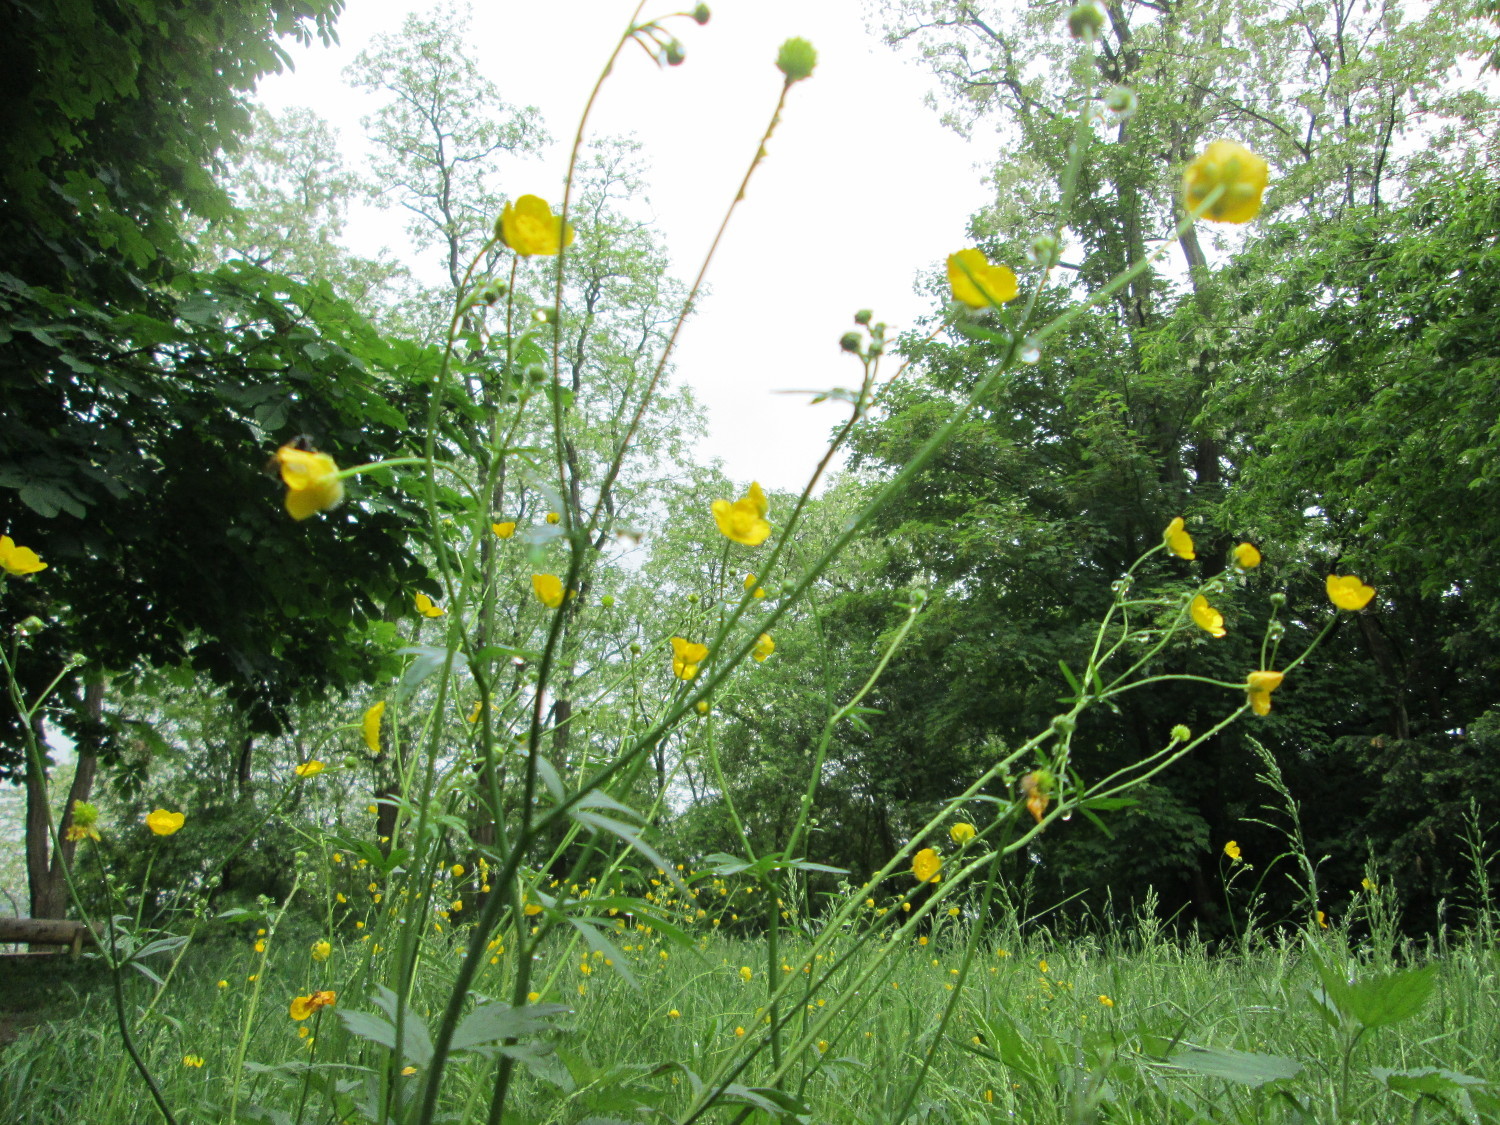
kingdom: Plantae
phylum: Tracheophyta
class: Magnoliopsida
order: Ranunculales
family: Ranunculaceae
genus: Ranunculus
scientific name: Ranunculus acris
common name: Meadow buttercup
